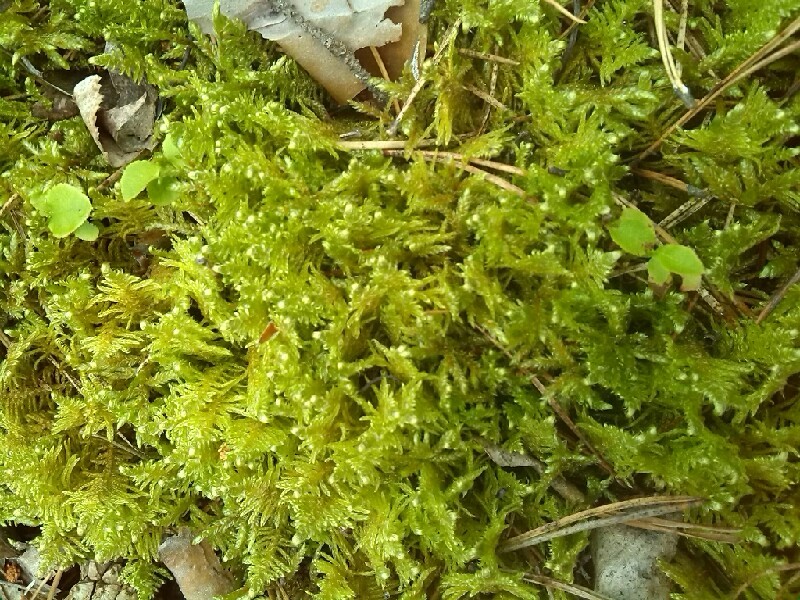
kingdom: Plantae
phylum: Bryophyta
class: Bryopsida
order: Hypnales
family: Pylaisiaceae
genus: Ptilium
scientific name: Ptilium crista-castrensis
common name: Knight's plume moss
